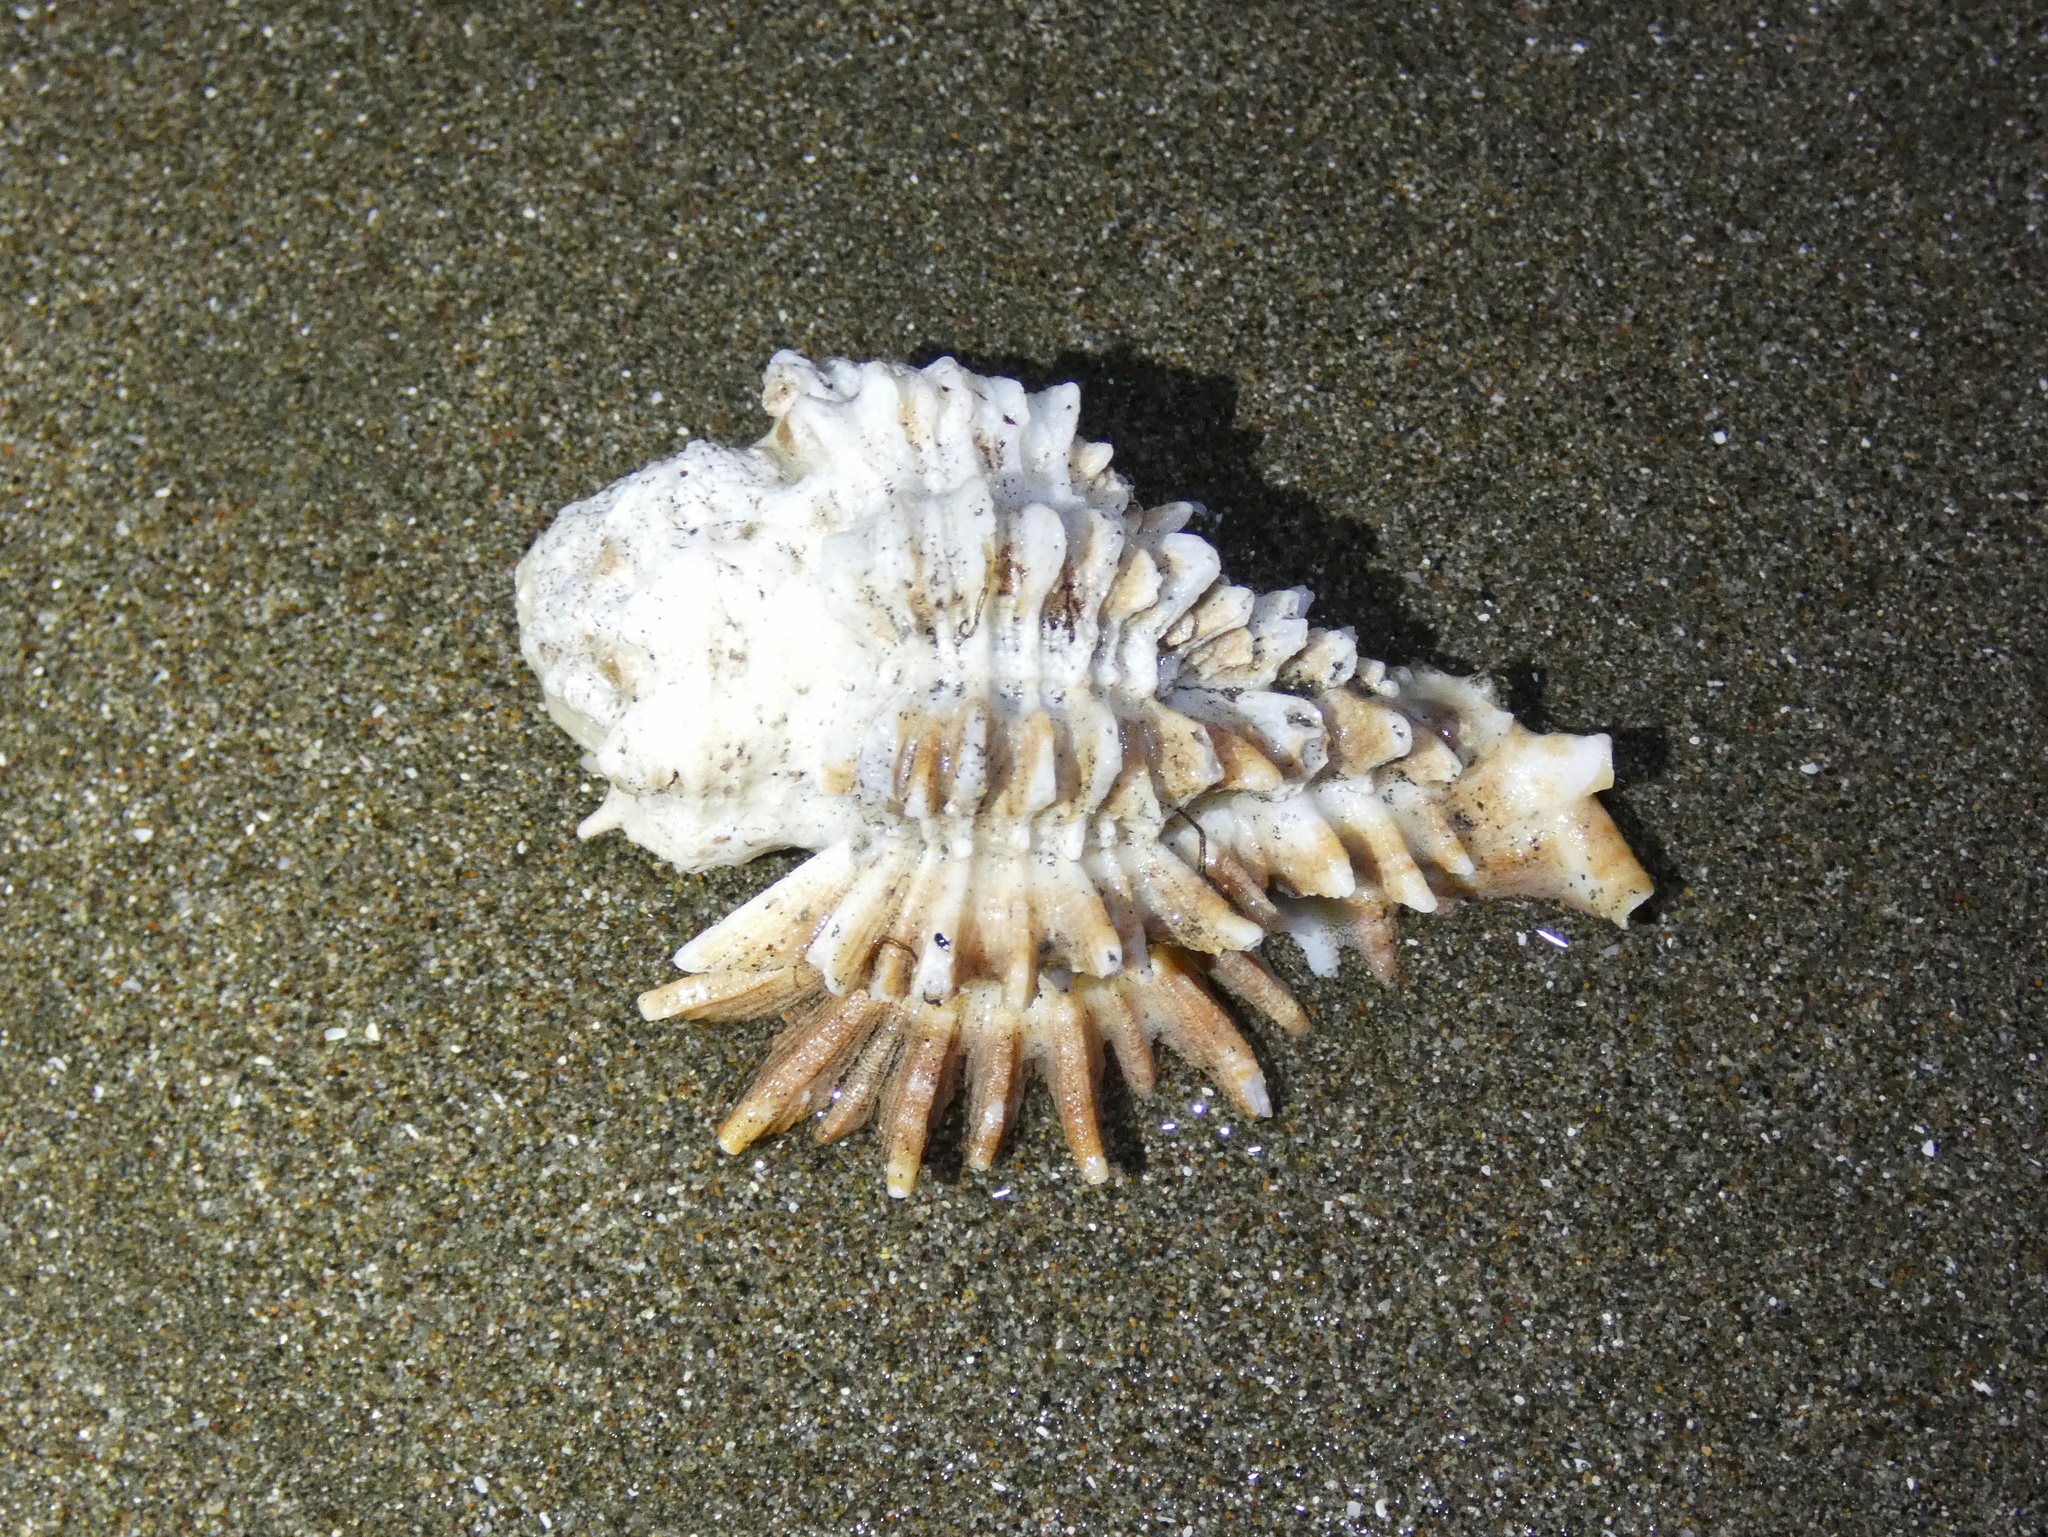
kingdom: Animalia
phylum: Mollusca
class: Gastropoda
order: Neogastropoda
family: Muricidae
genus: Homalocantha
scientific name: Homalocantha oxyacantha
